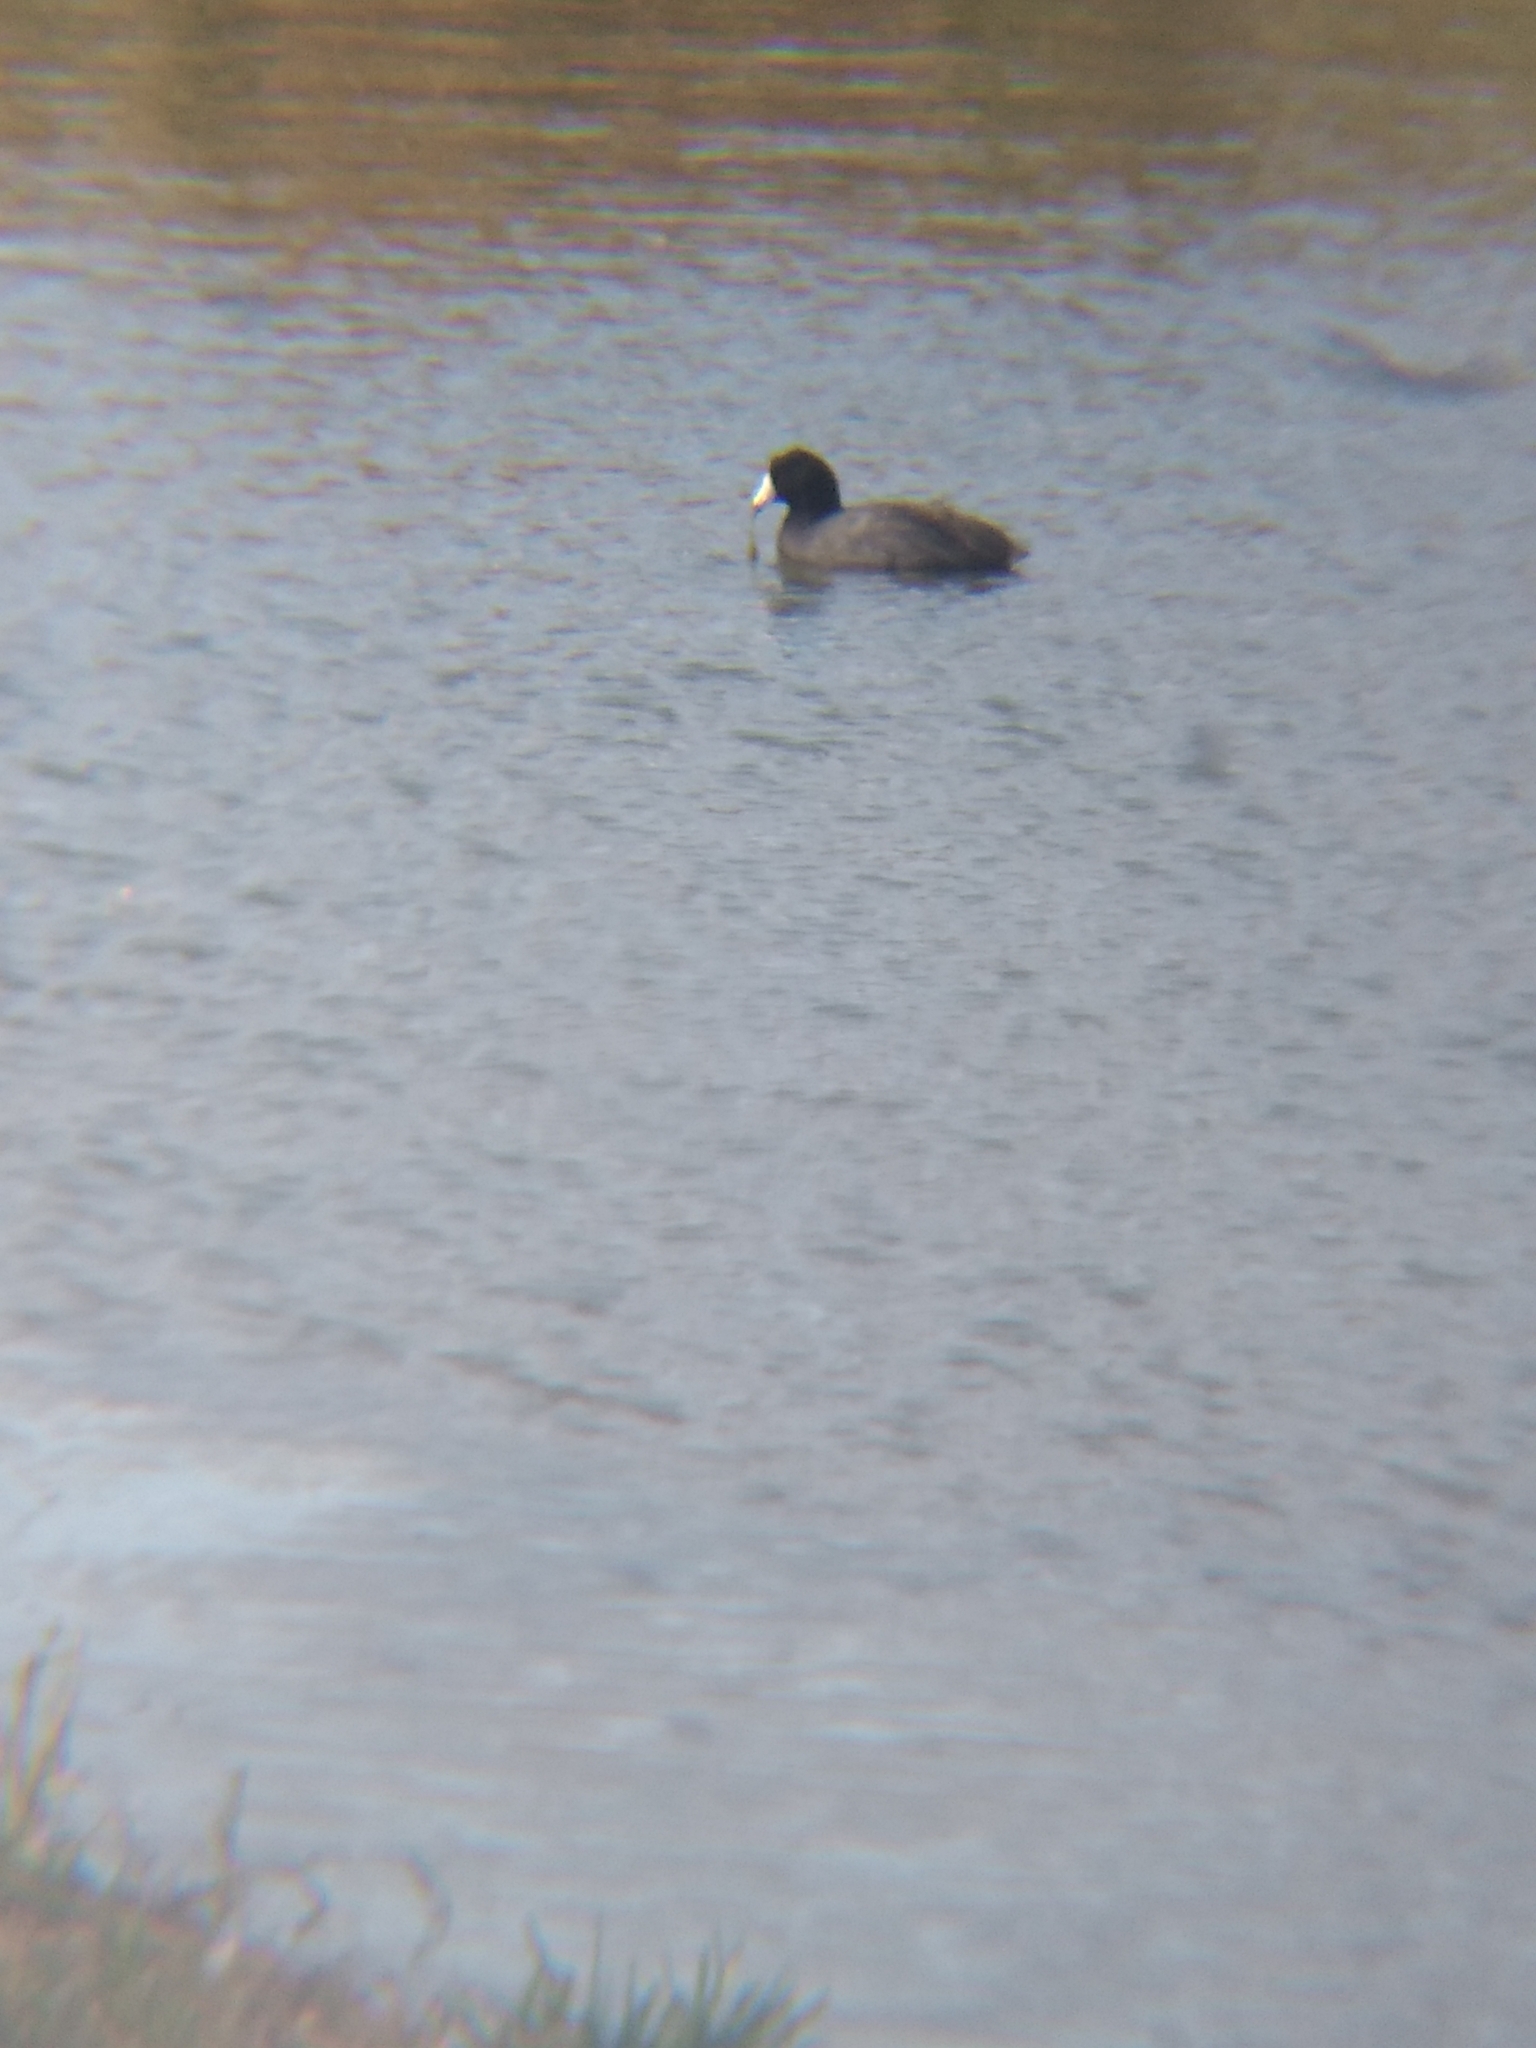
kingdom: Animalia
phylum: Chordata
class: Aves
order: Gruiformes
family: Rallidae
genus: Fulica
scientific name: Fulica americana
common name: American coot
